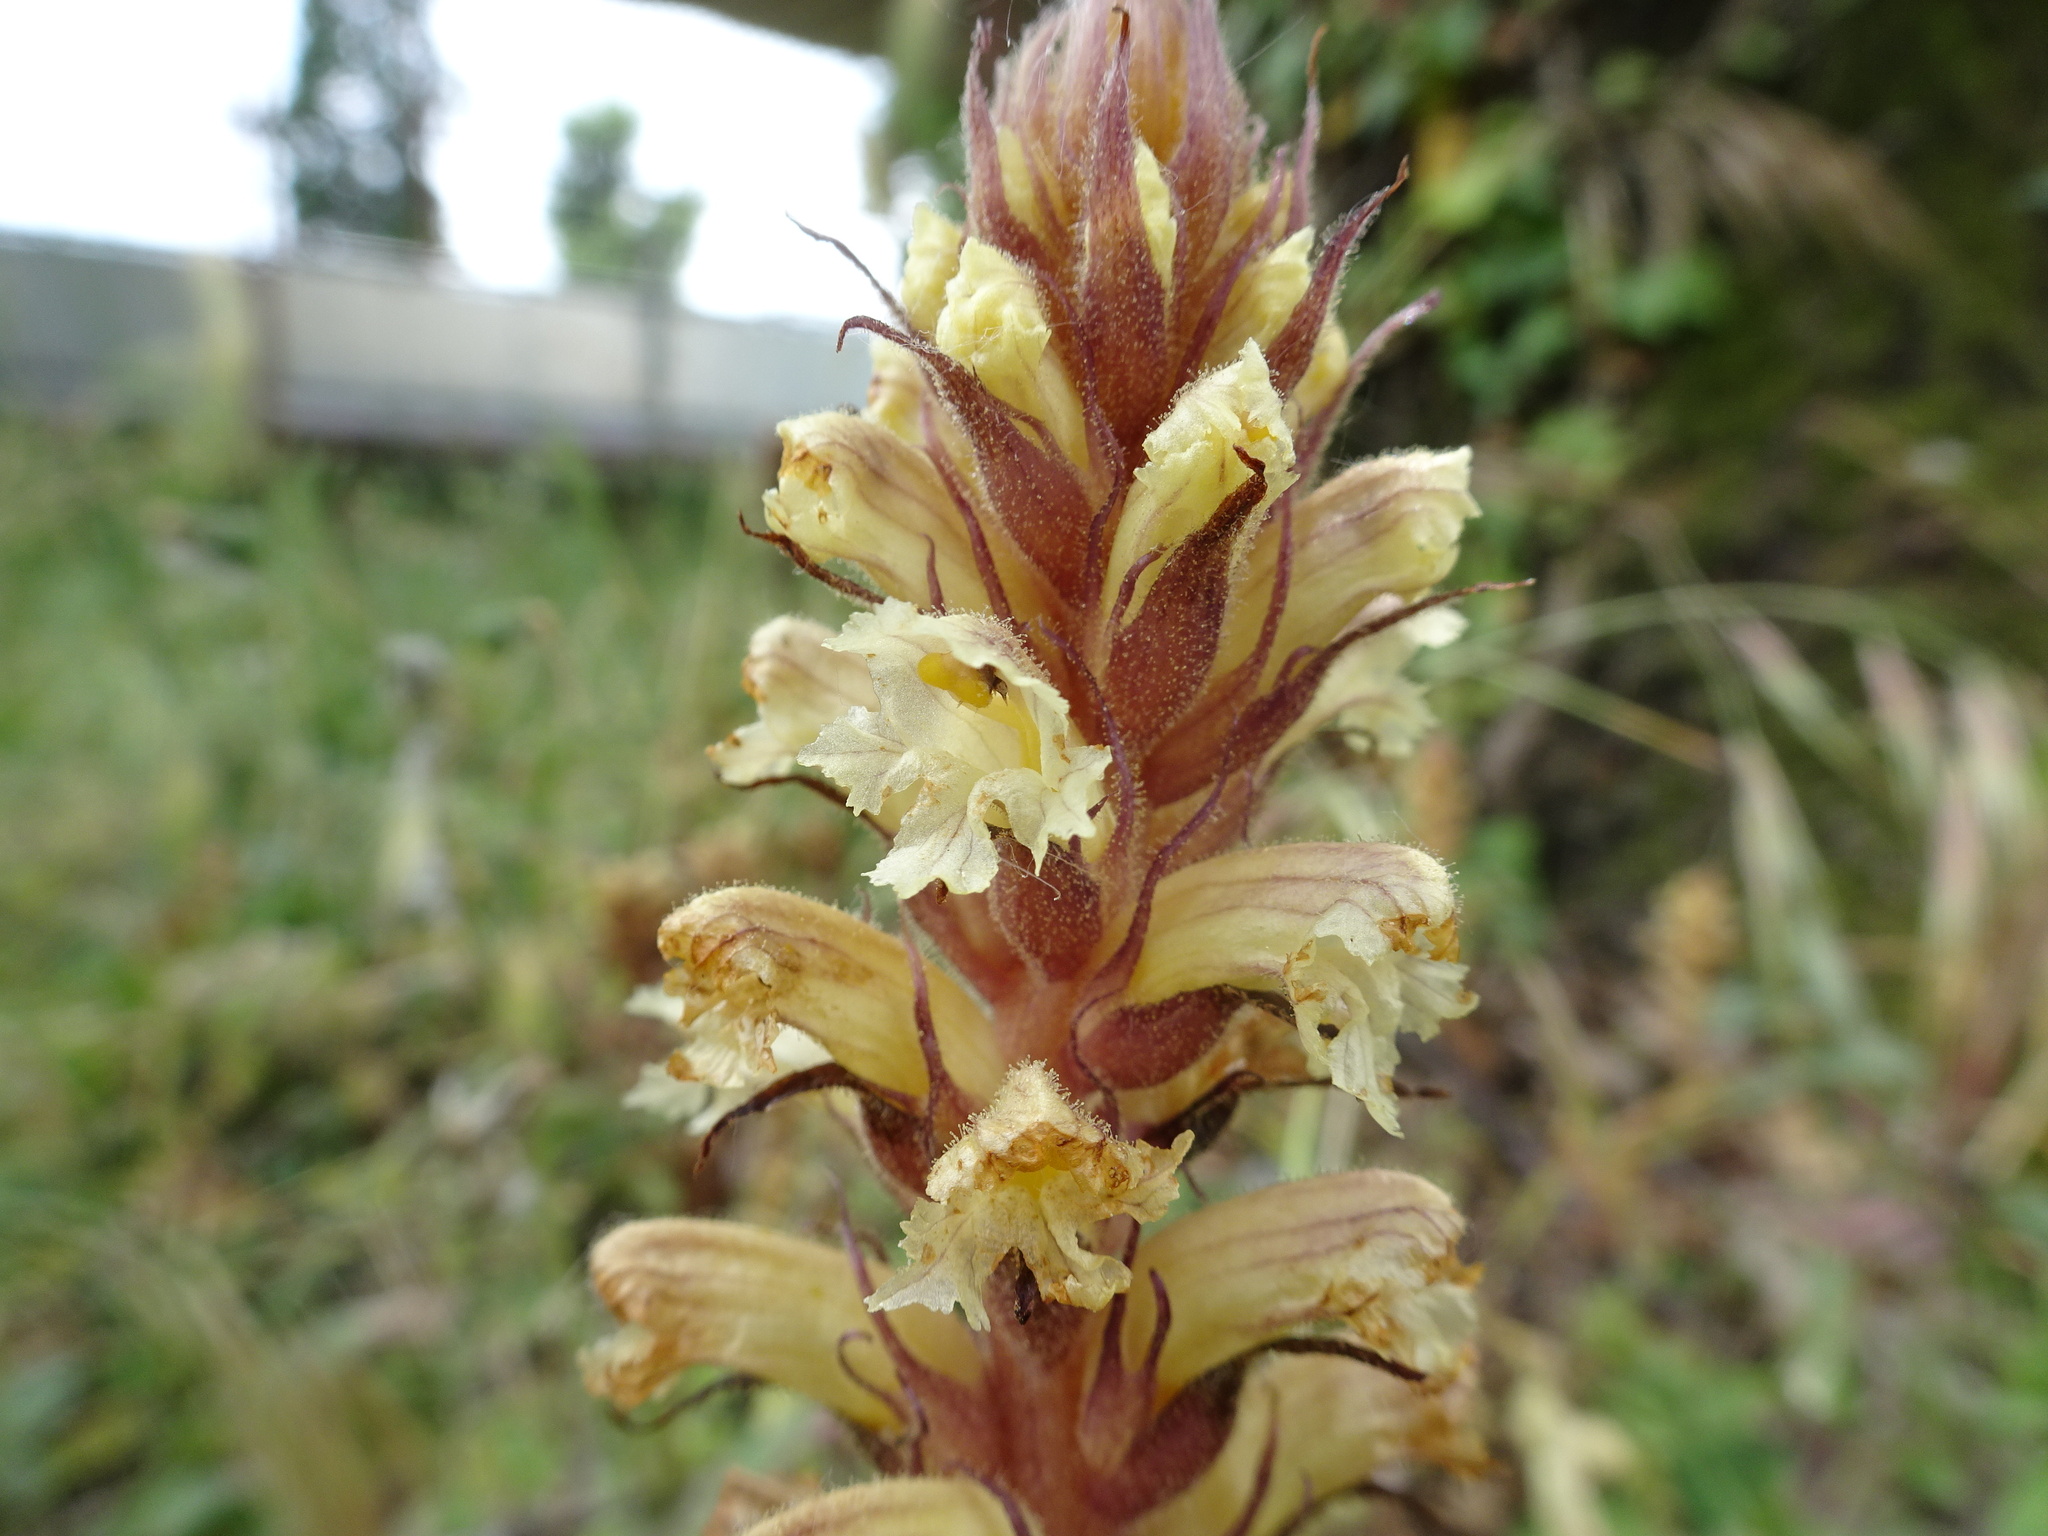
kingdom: Plantae
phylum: Tracheophyta
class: Magnoliopsida
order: Lamiales
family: Orobanchaceae
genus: Orobanche
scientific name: Orobanche hederae
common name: Ivy broomrape
